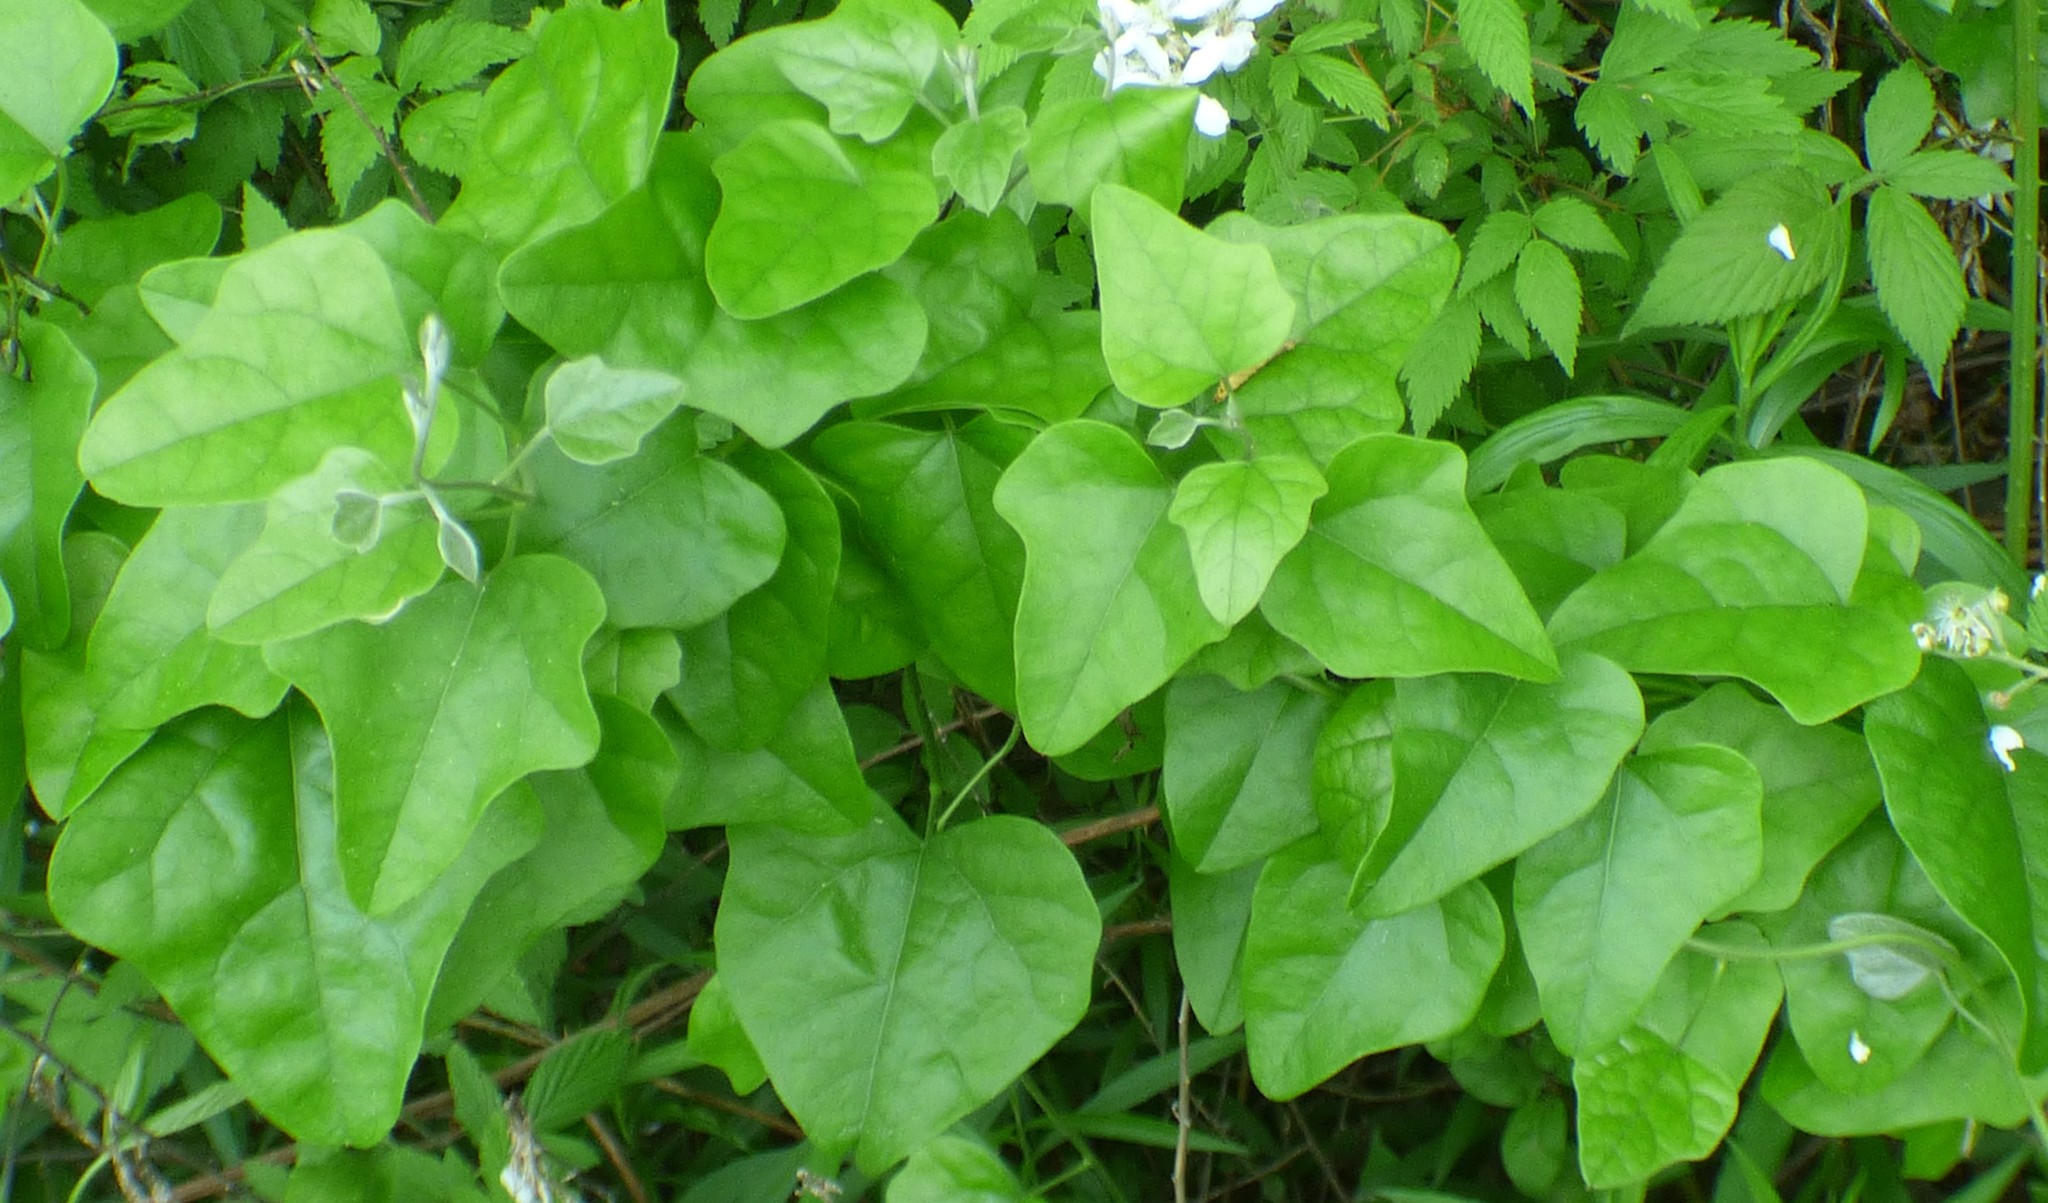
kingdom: Plantae
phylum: Tracheophyta
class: Magnoliopsida
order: Ranunculales
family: Menispermaceae
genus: Cocculus
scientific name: Cocculus carolinus
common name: Carolina moonseed
